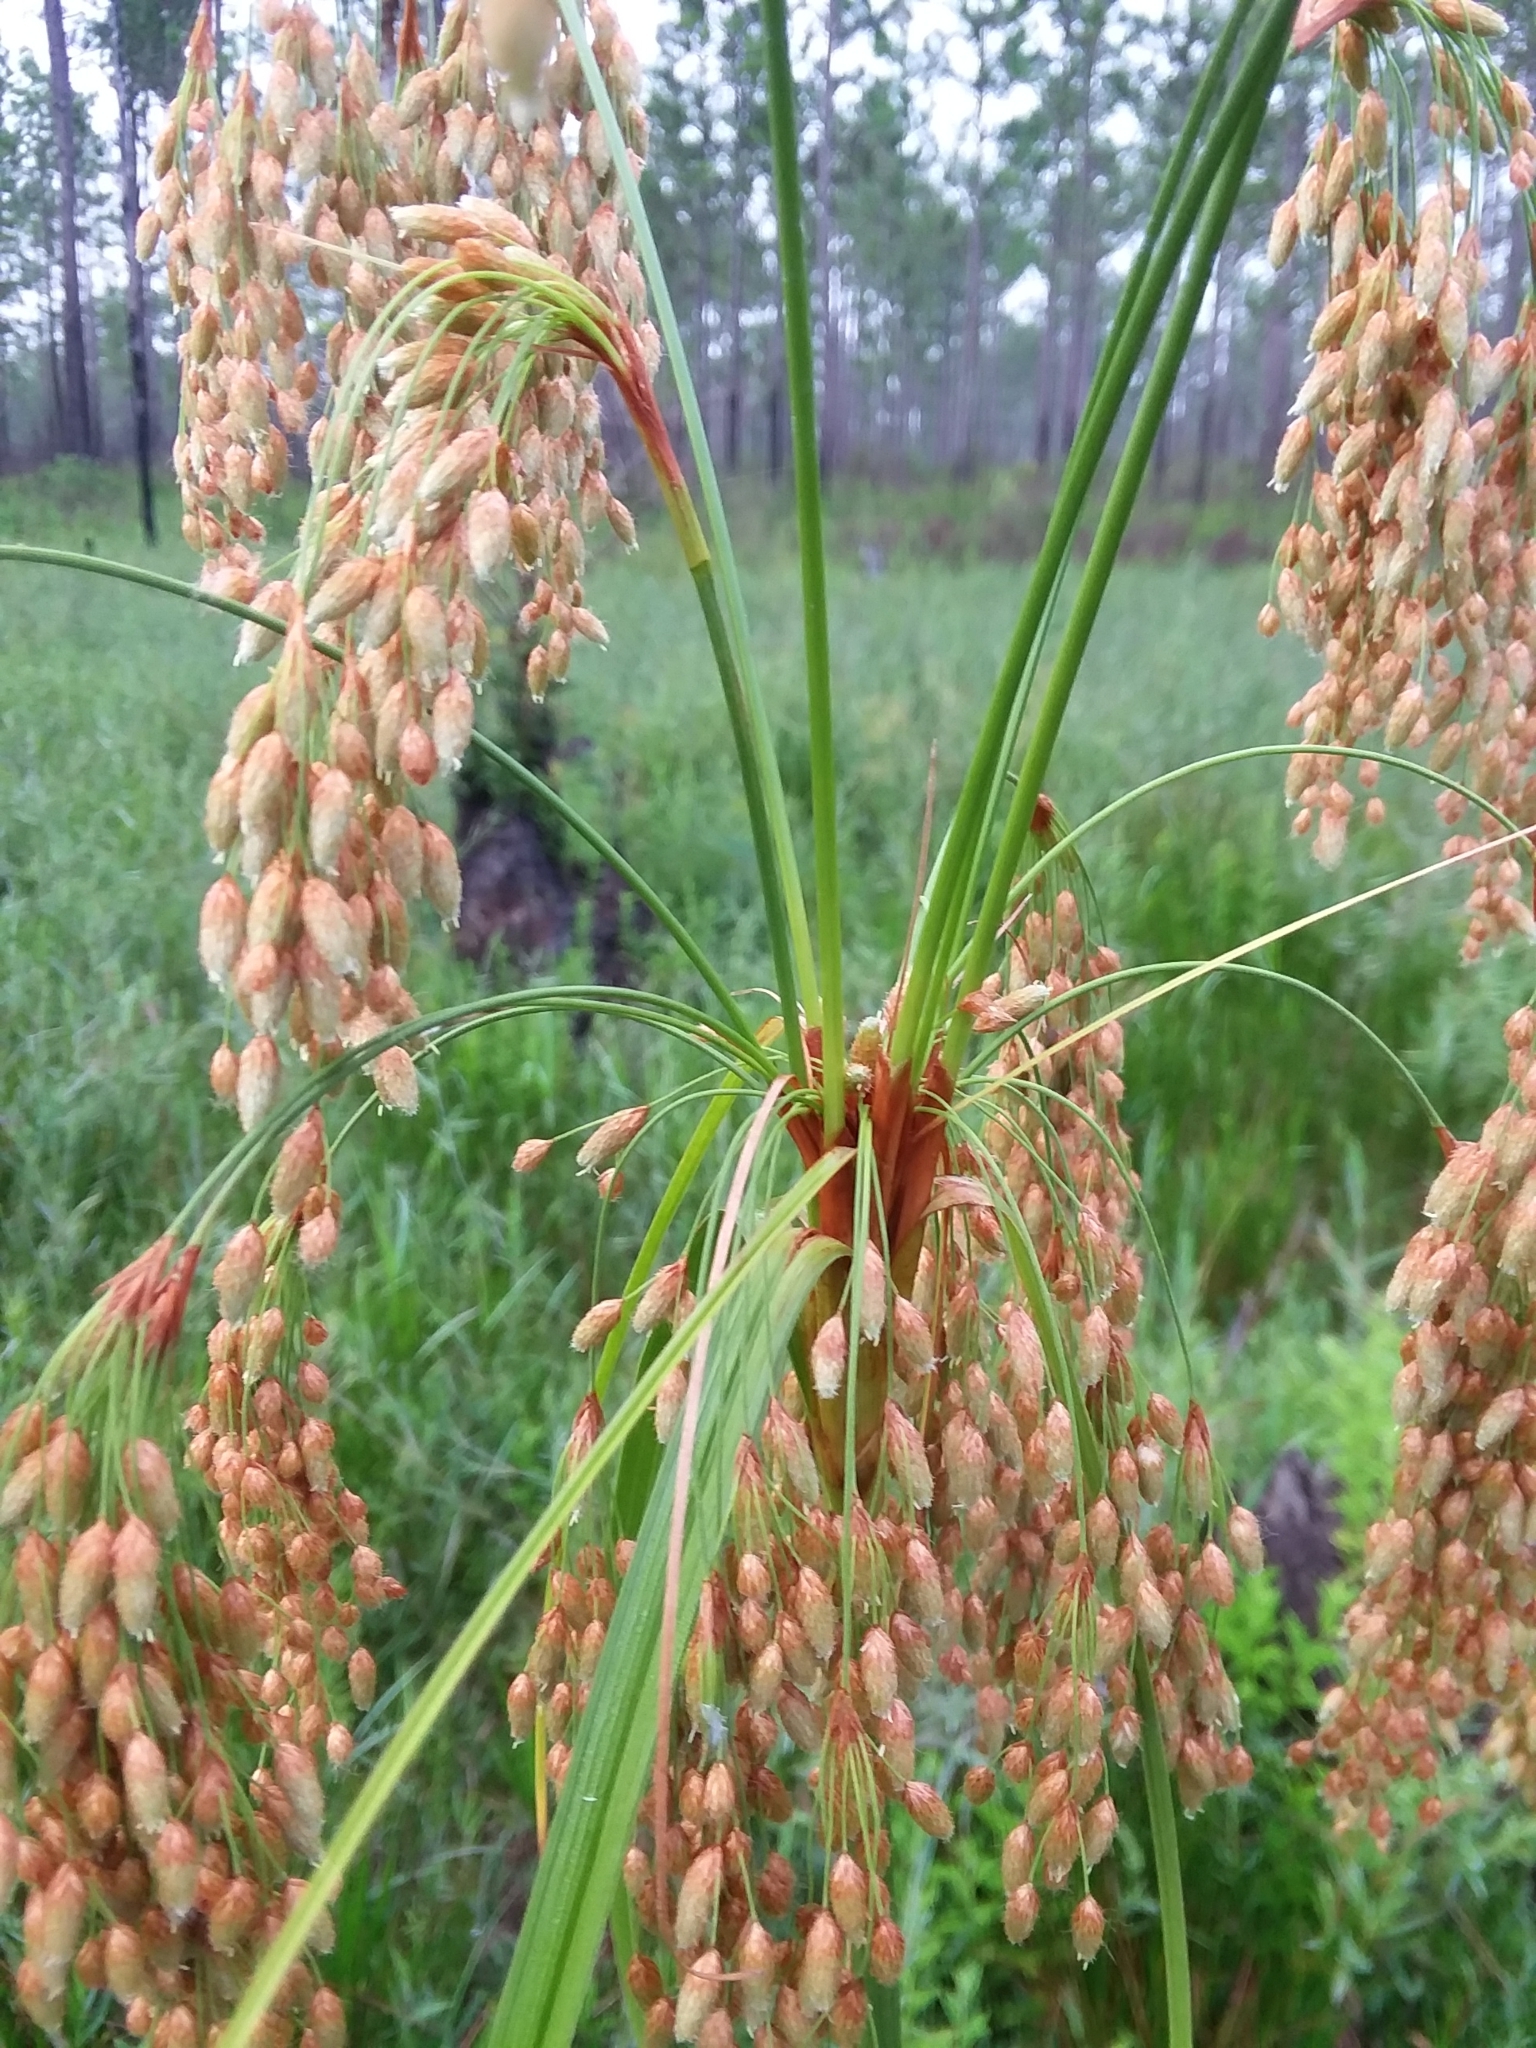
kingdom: Plantae
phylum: Tracheophyta
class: Liliopsida
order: Poales
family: Cyperaceae
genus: Scirpus
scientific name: Scirpus cyperinus
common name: Black-sheathed bulrush
